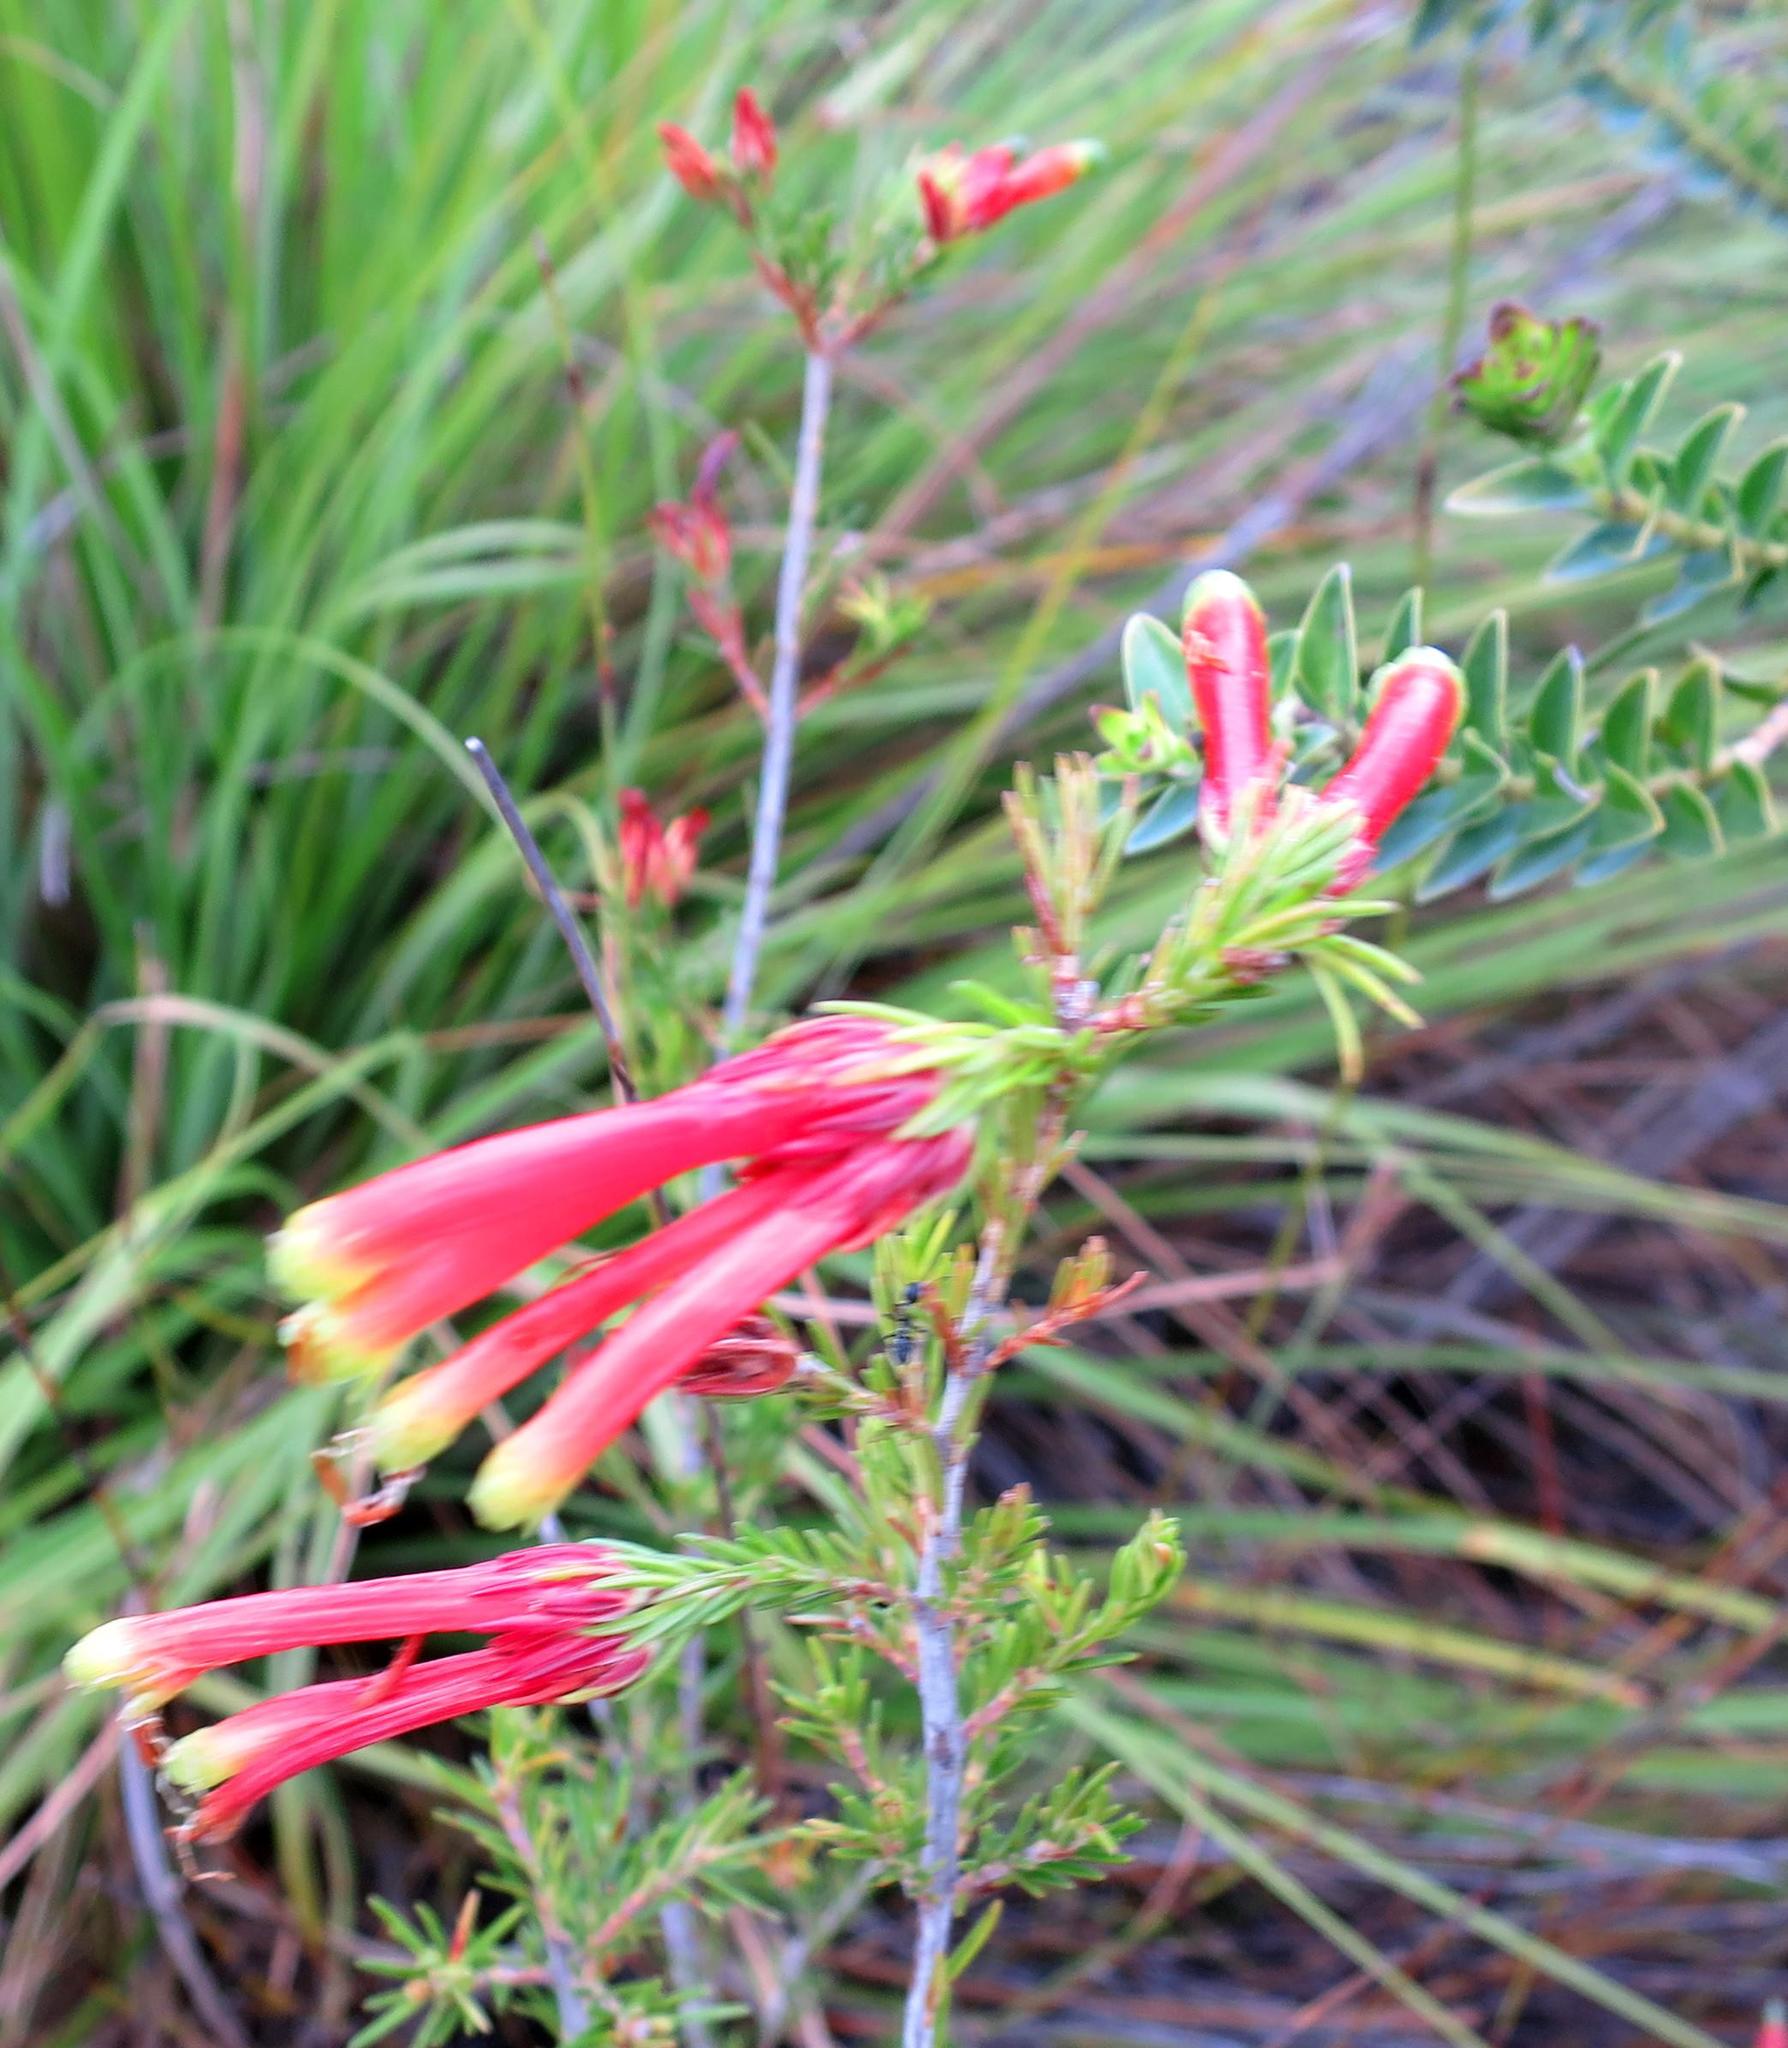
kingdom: Plantae
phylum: Tracheophyta
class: Magnoliopsida
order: Ericales
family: Ericaceae
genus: Erica
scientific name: Erica unicolor
